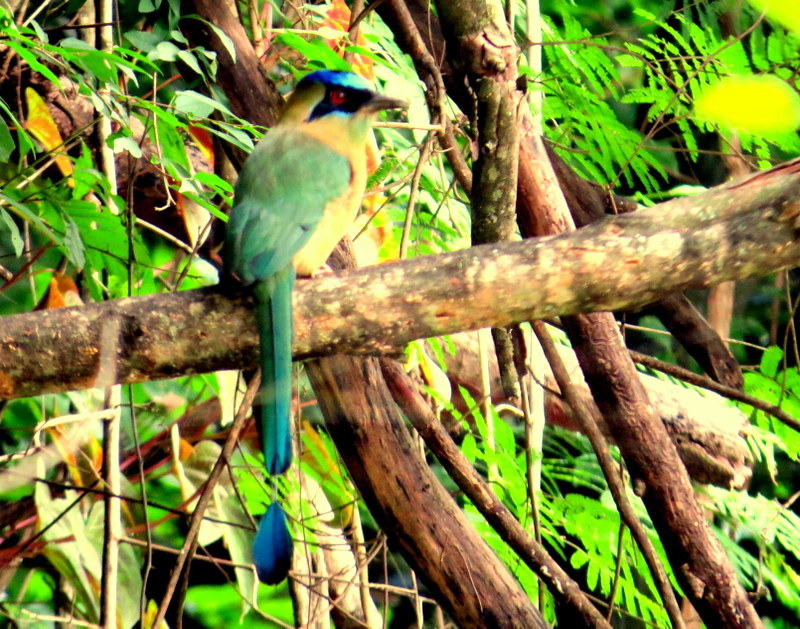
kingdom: Animalia
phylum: Chordata
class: Aves
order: Coraciiformes
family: Momotidae
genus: Momotus
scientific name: Momotus momota
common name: Amazonian motmot
